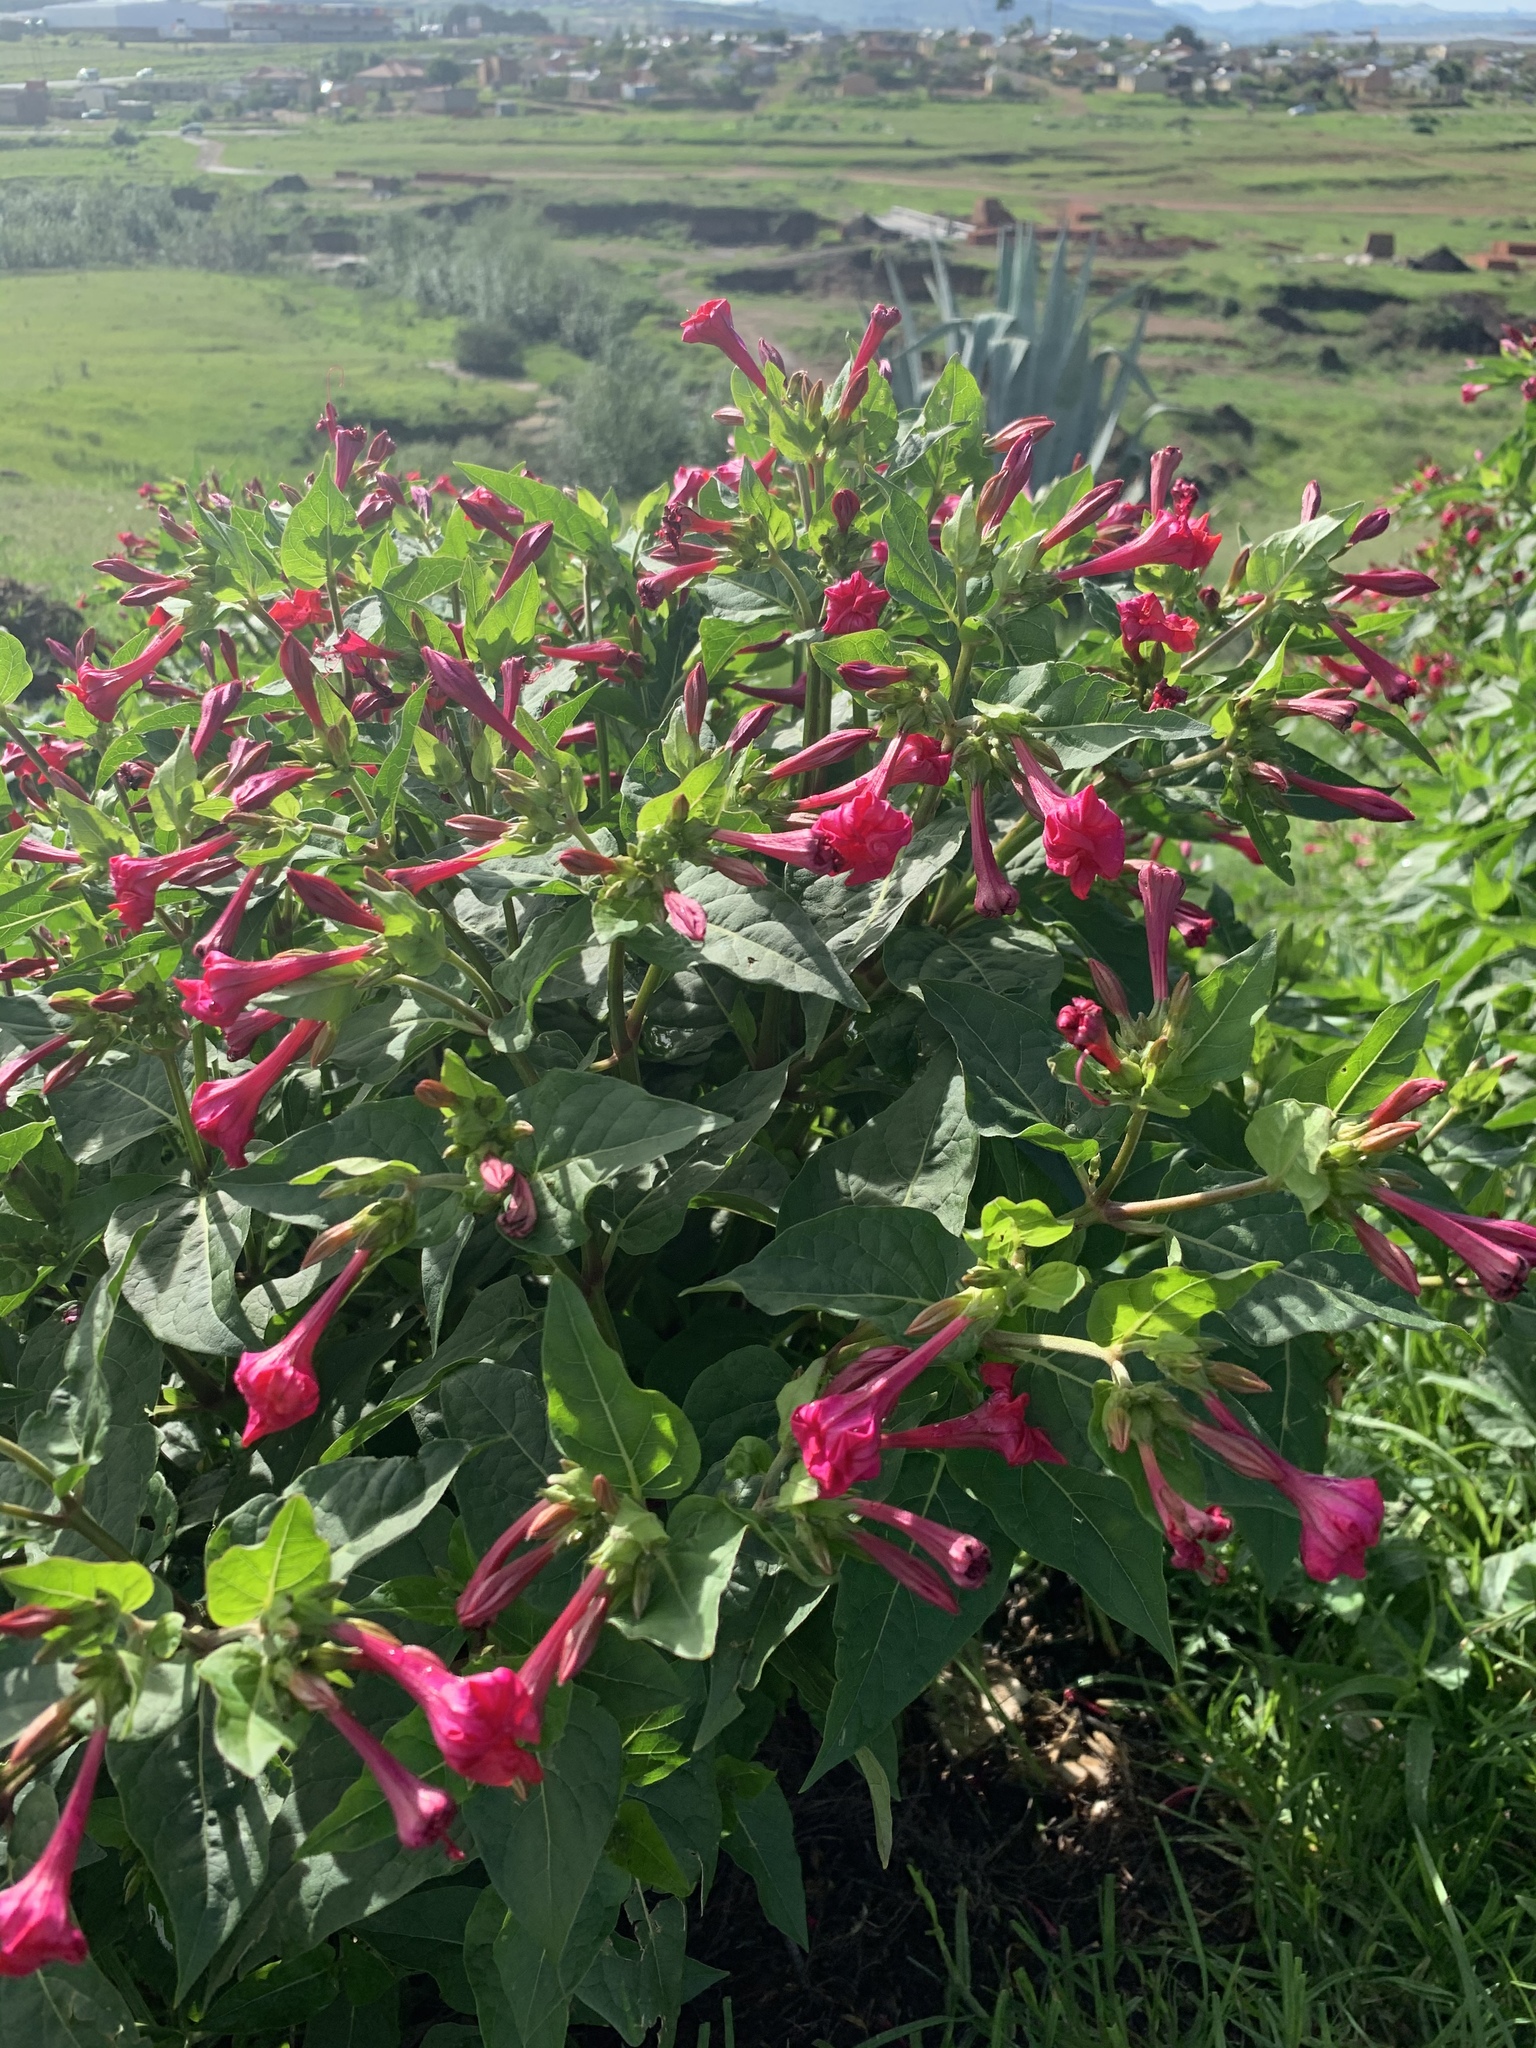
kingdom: Plantae
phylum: Tracheophyta
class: Magnoliopsida
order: Caryophyllales
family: Nyctaginaceae
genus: Mirabilis
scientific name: Mirabilis jalapa
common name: Marvel-of-peru
